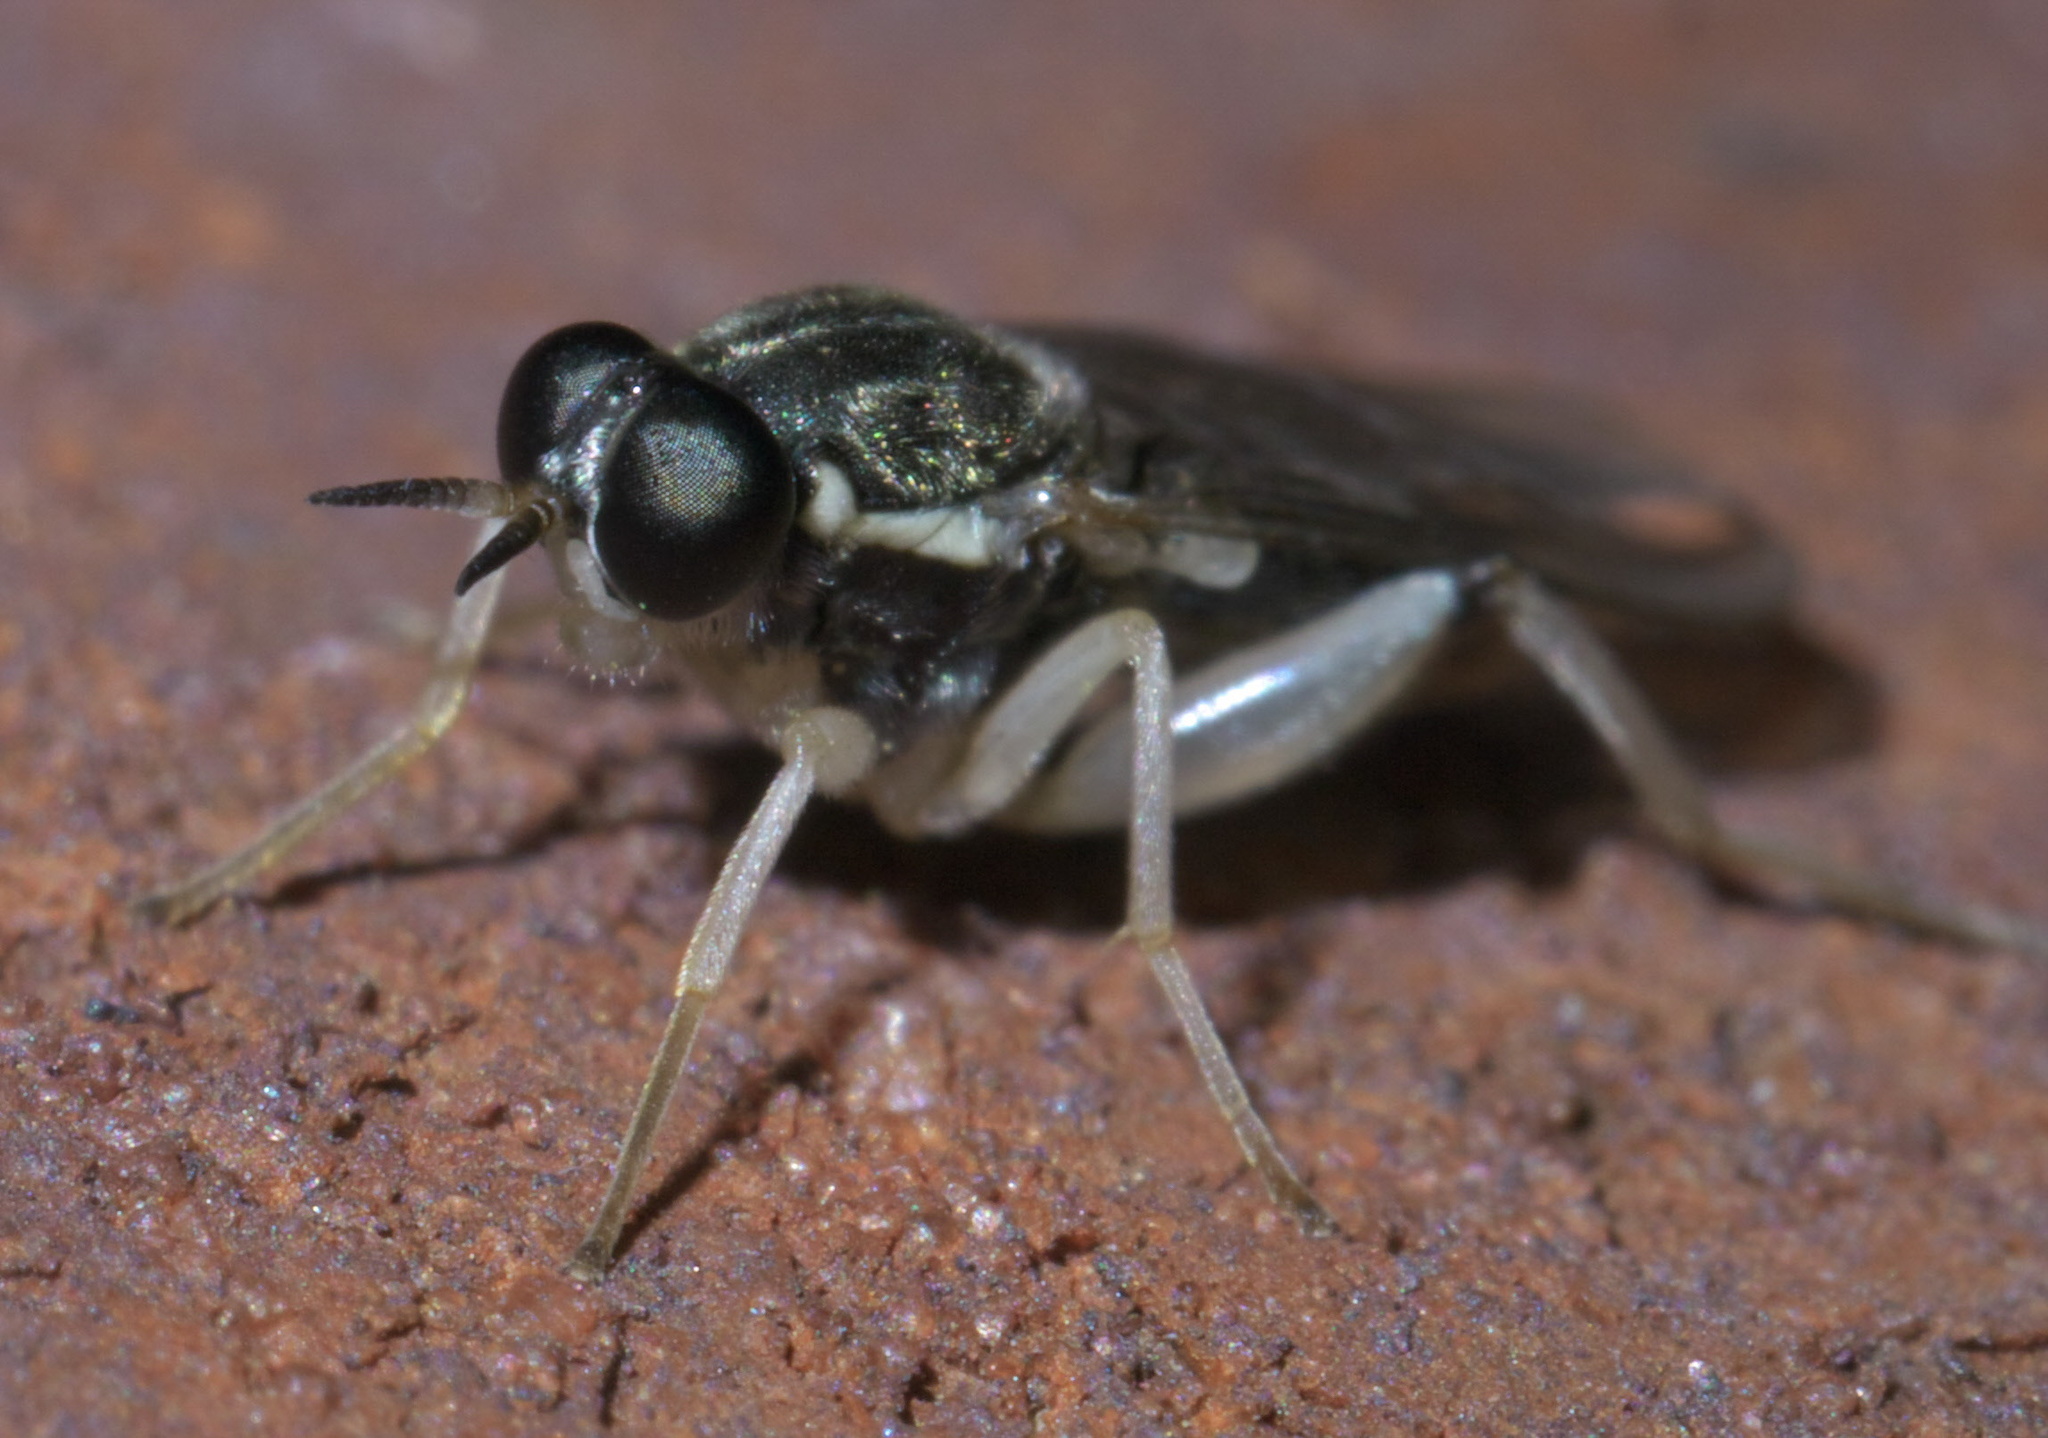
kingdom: Animalia
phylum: Arthropoda
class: Insecta
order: Diptera
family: Xylomyidae
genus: Solva
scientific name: Solva pallipes
